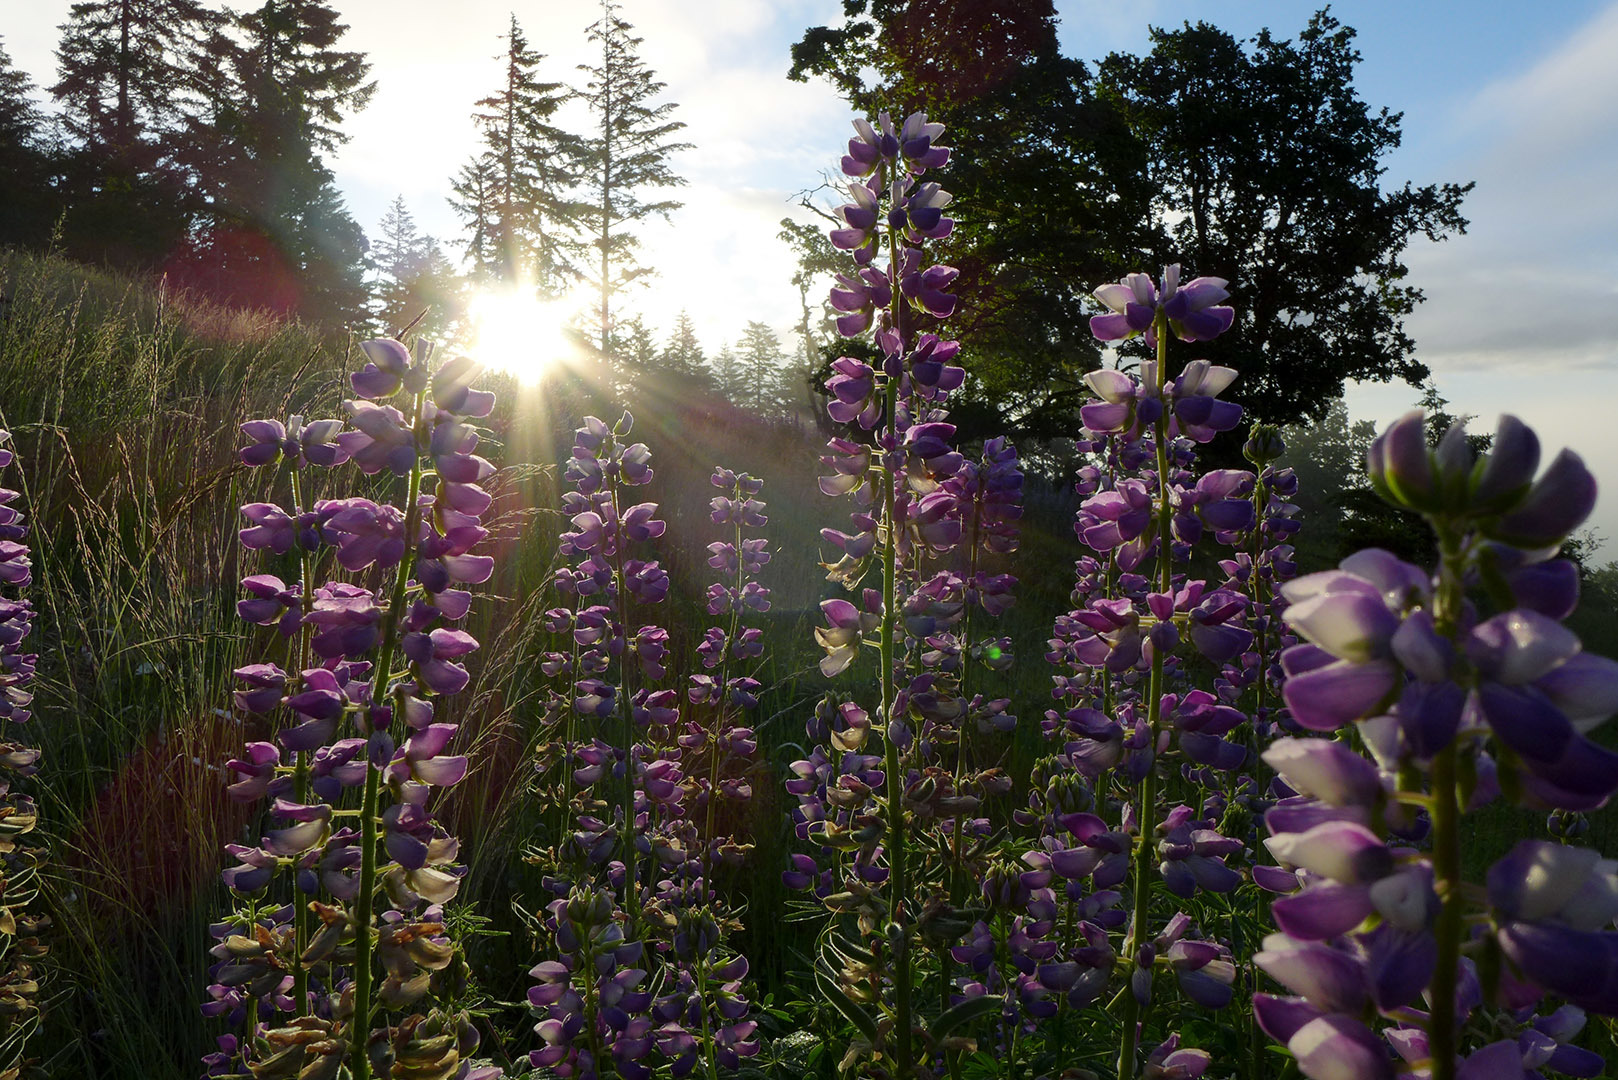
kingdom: Plantae
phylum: Tracheophyta
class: Magnoliopsida
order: Fabales
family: Fabaceae
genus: Lupinus
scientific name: Lupinus rivularis
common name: Riverbank lupine
